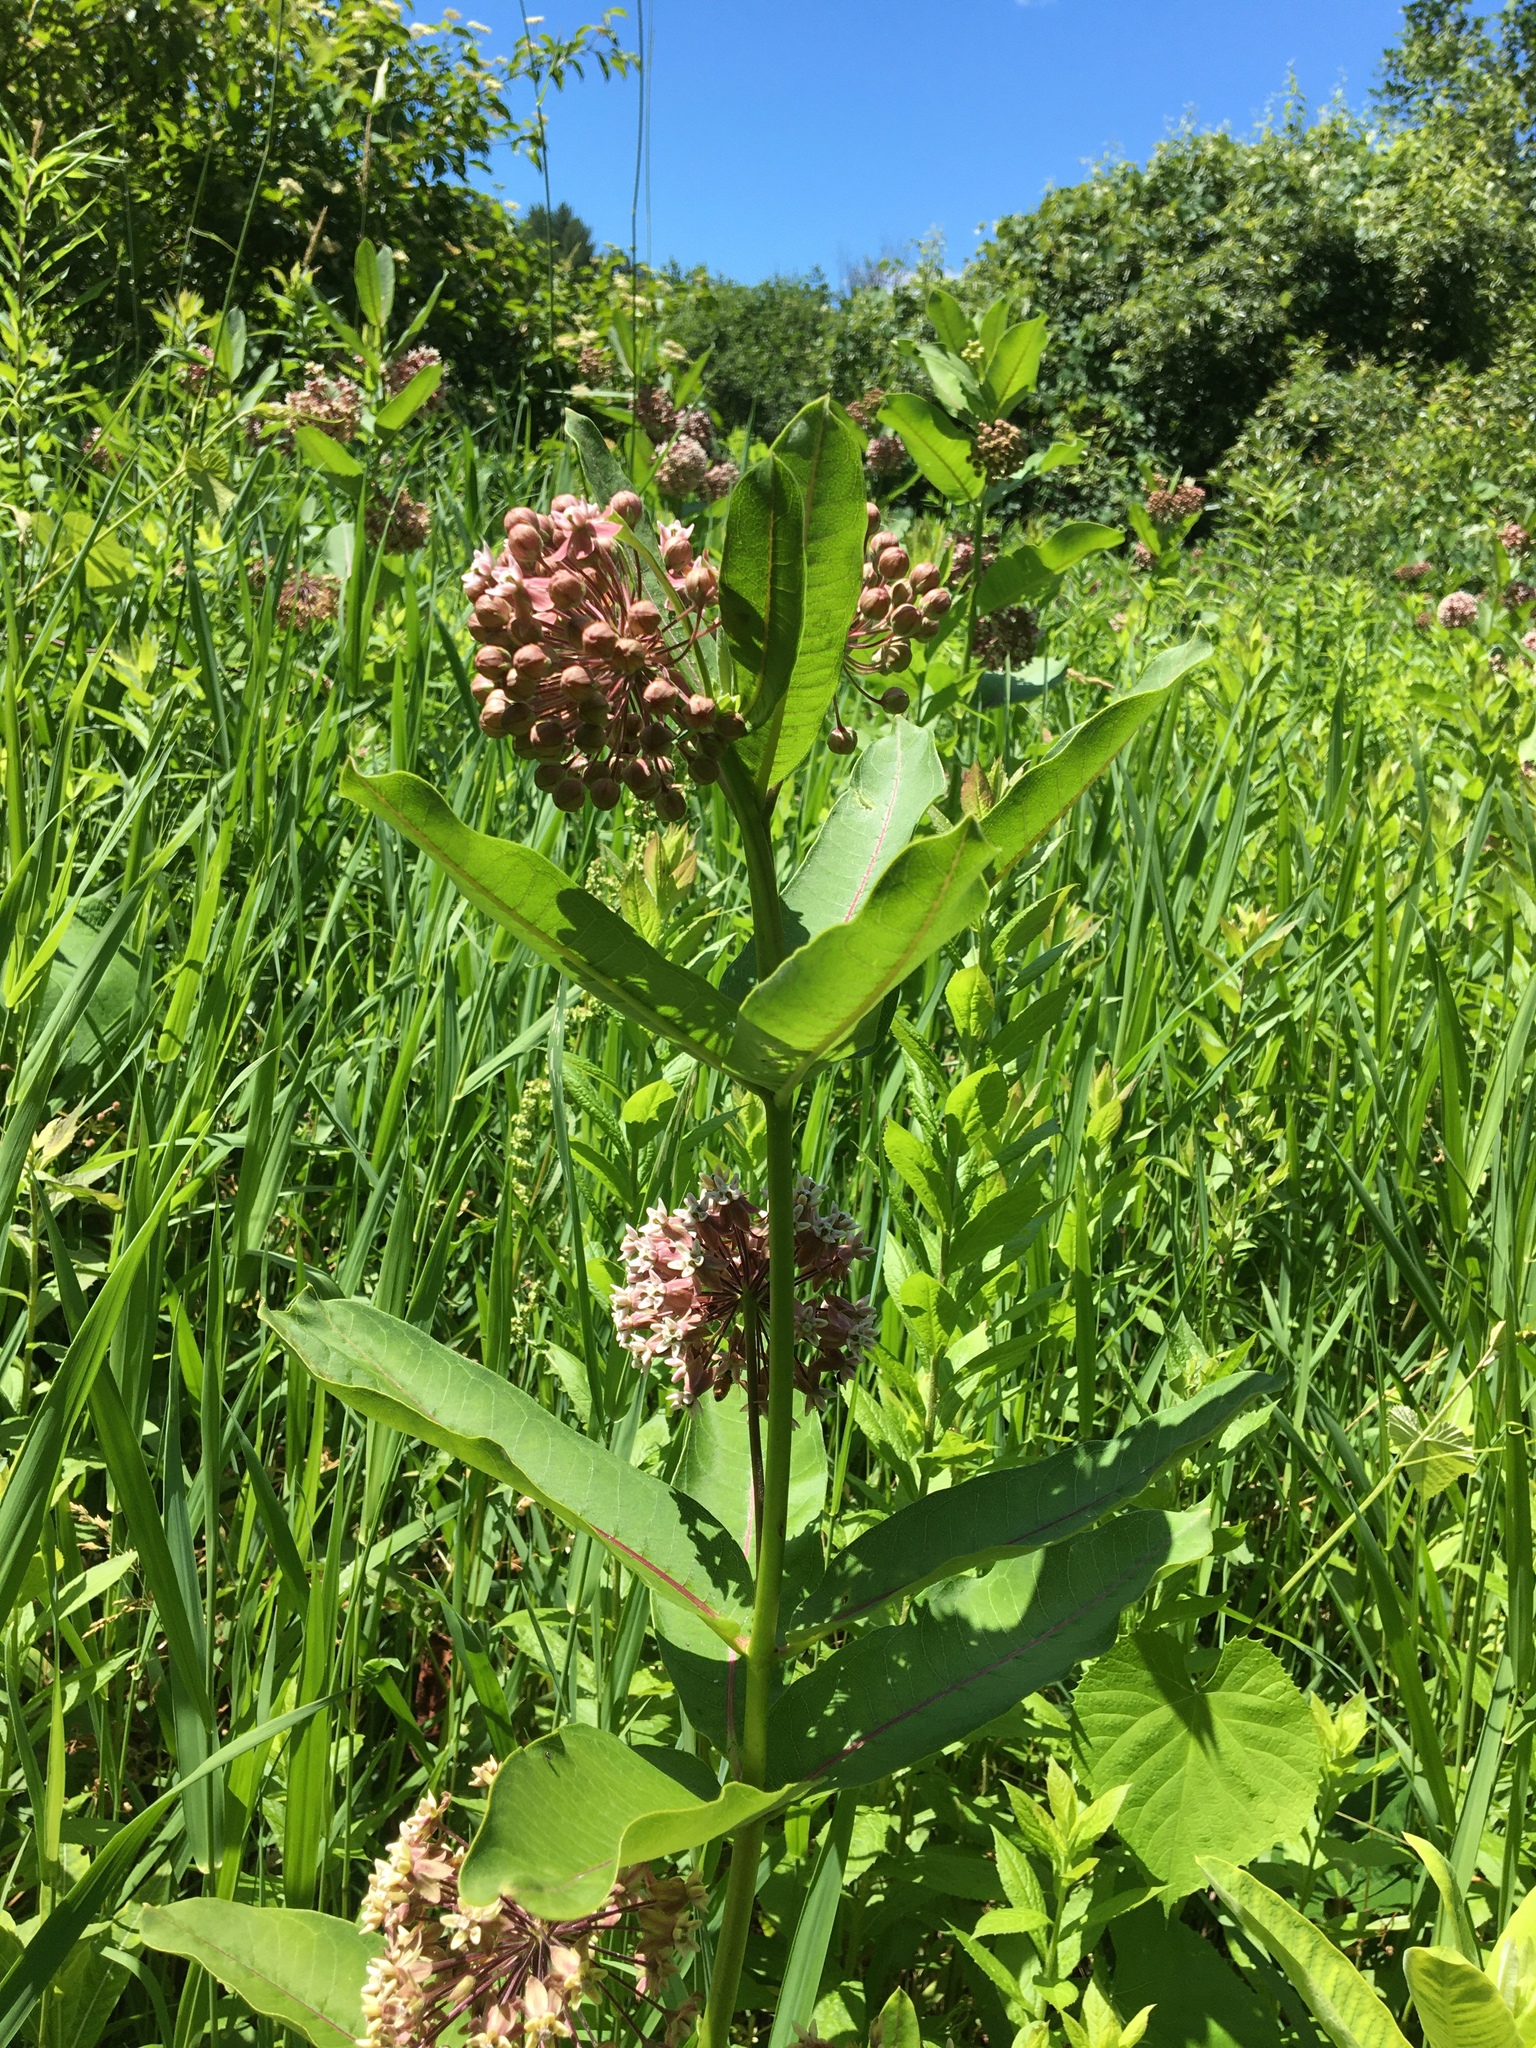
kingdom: Plantae
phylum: Tracheophyta
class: Magnoliopsida
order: Gentianales
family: Apocynaceae
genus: Asclepias
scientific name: Asclepias syriaca
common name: Common milkweed
